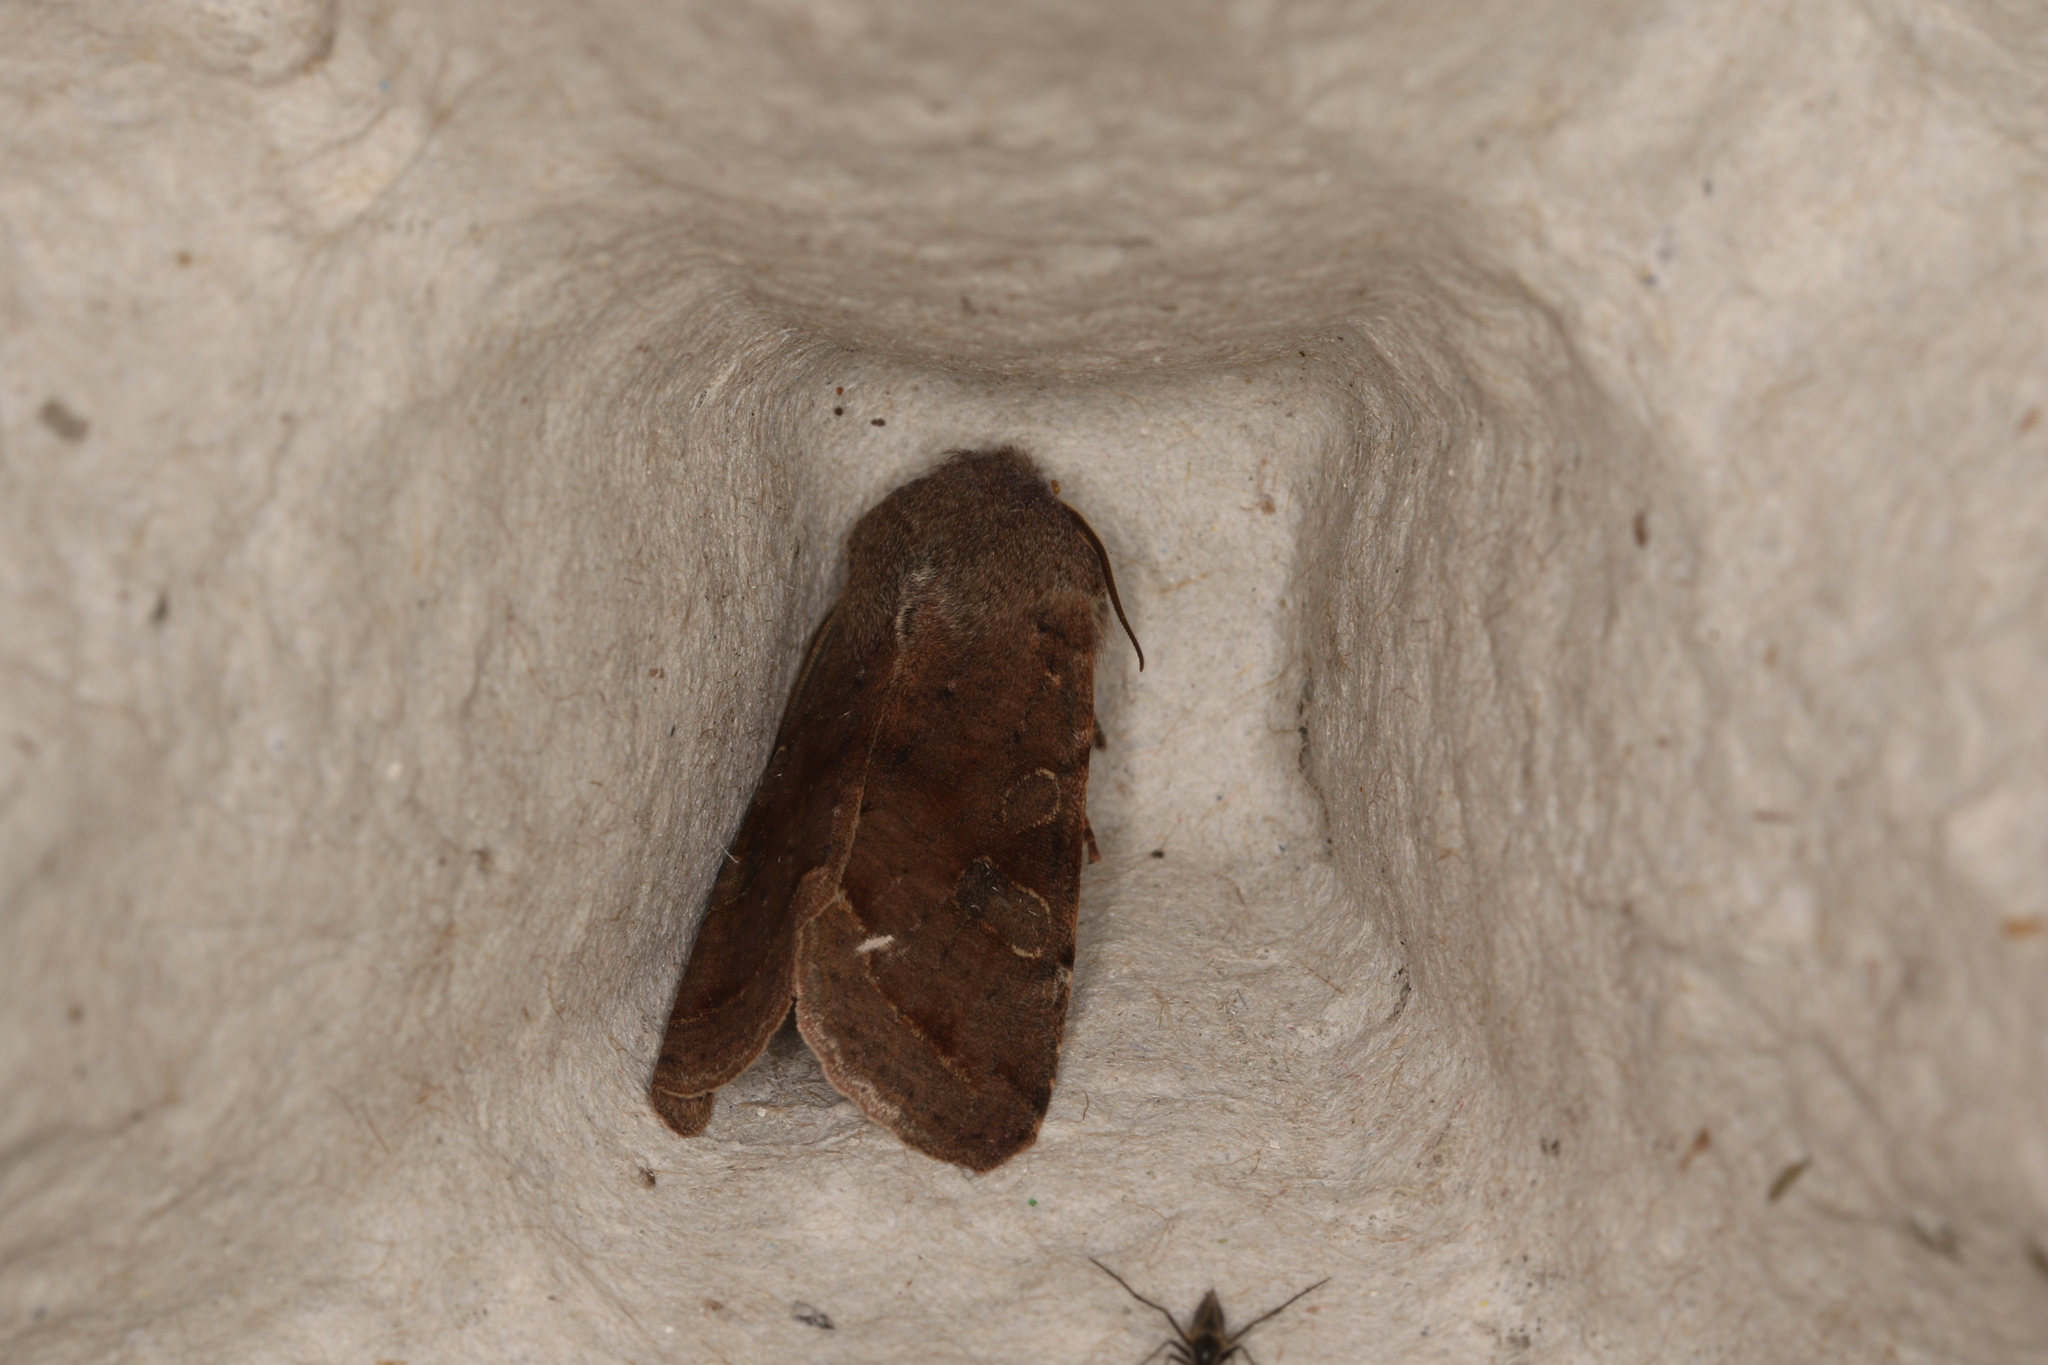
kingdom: Animalia
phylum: Arthropoda
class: Insecta
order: Lepidoptera
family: Noctuidae
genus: Orthosia
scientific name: Orthosia incerta
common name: Clouded drab
